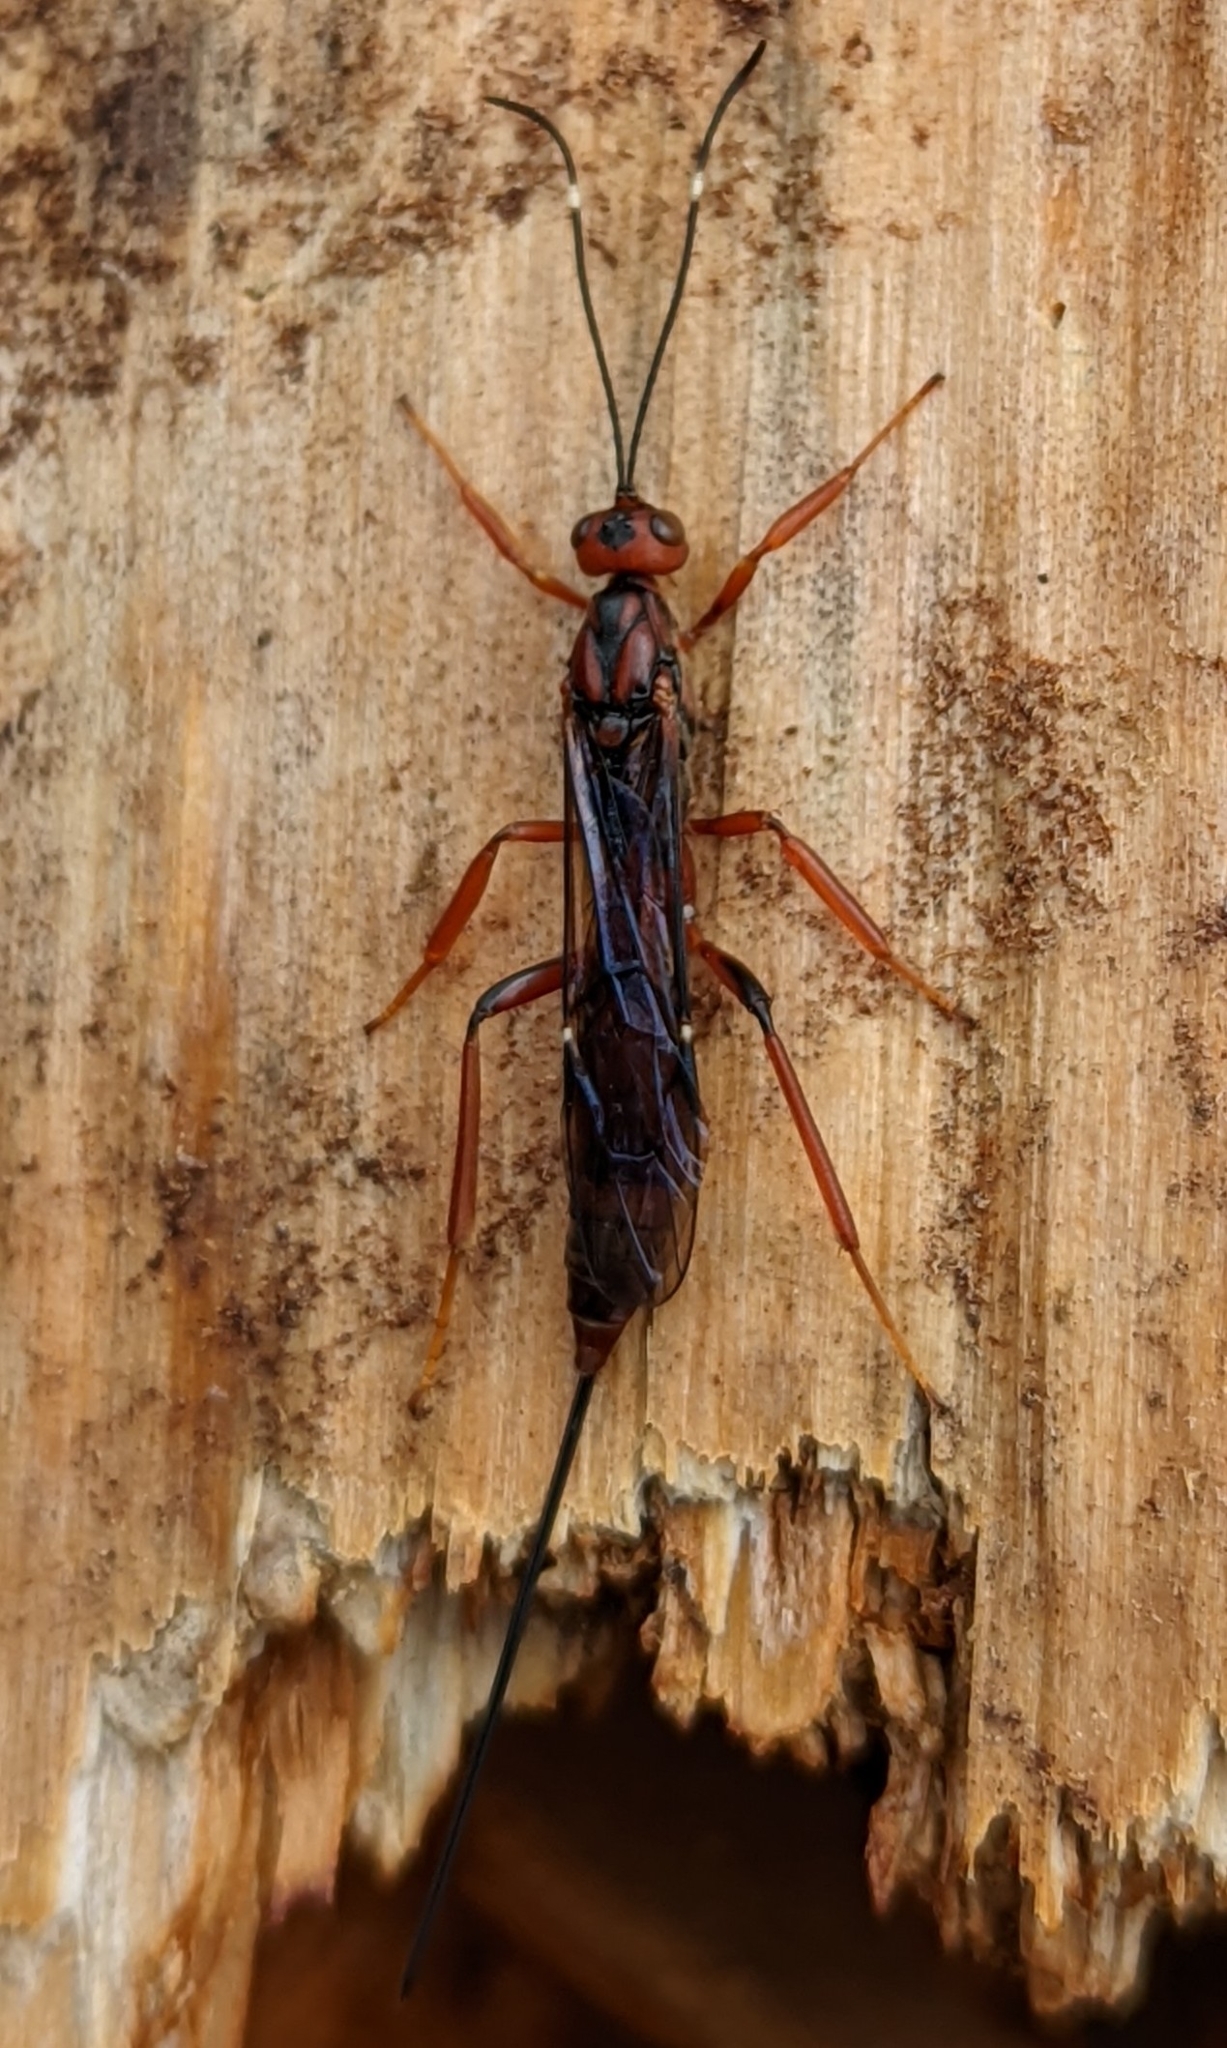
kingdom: Animalia
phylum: Arthropoda
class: Insecta
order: Hymenoptera
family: Ichneumonidae
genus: Xorides
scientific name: Xorides californicus
